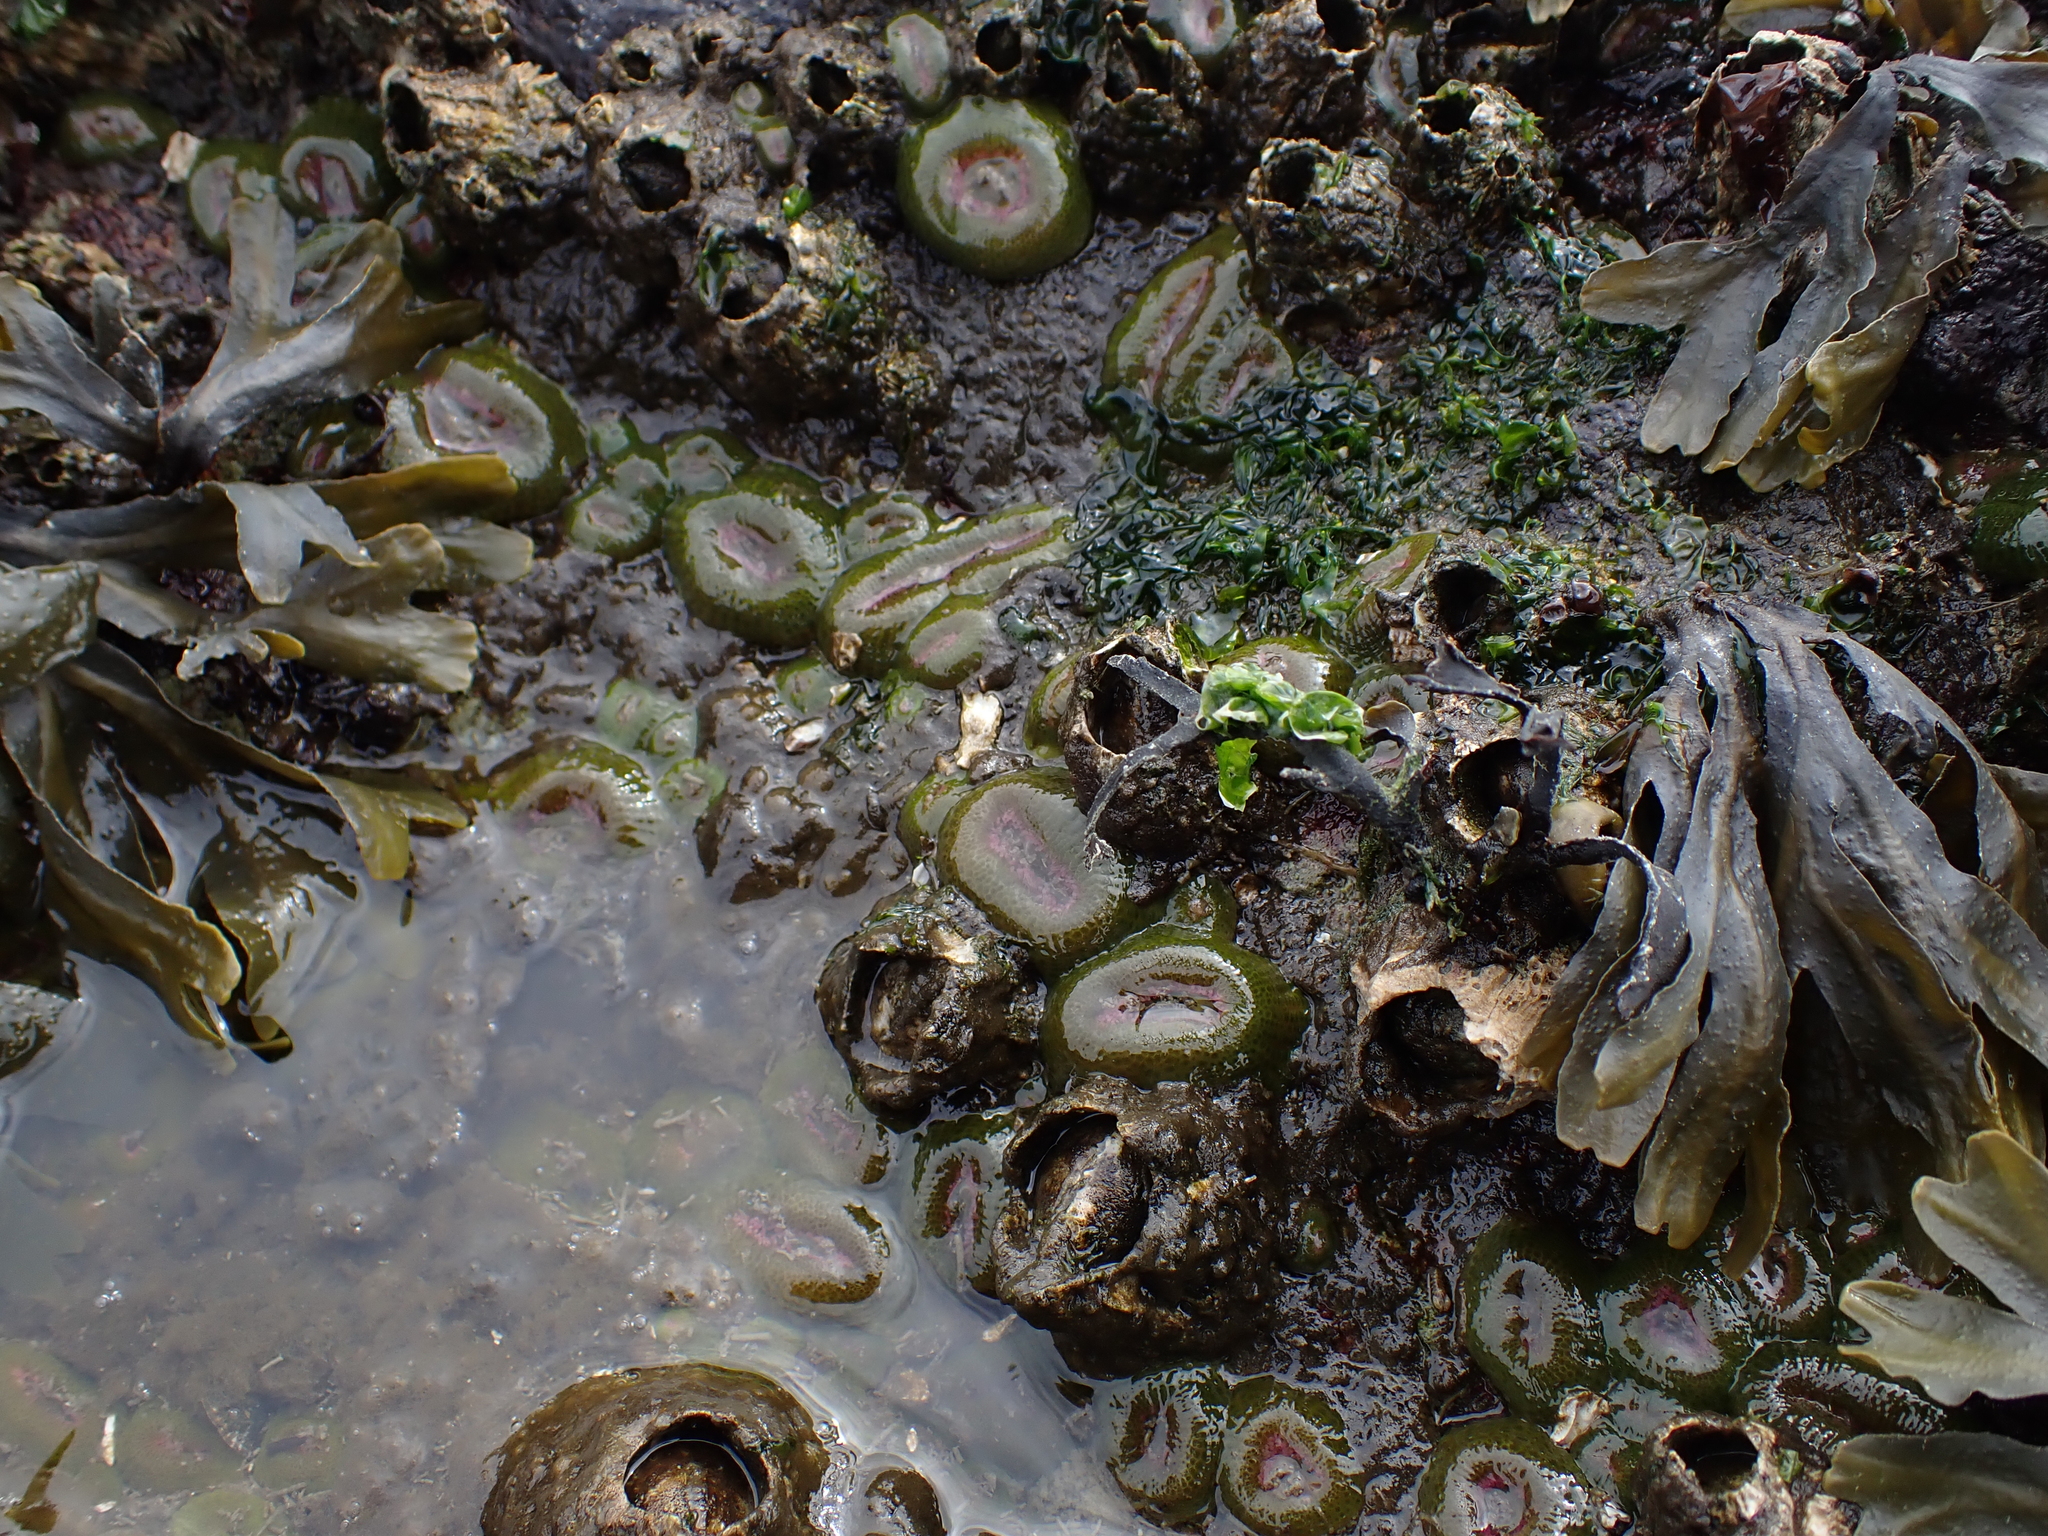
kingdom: Animalia
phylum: Cnidaria
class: Anthozoa
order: Actiniaria
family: Actiniidae
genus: Anthopleura
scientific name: Anthopleura elegantissima
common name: Clonal anemone
